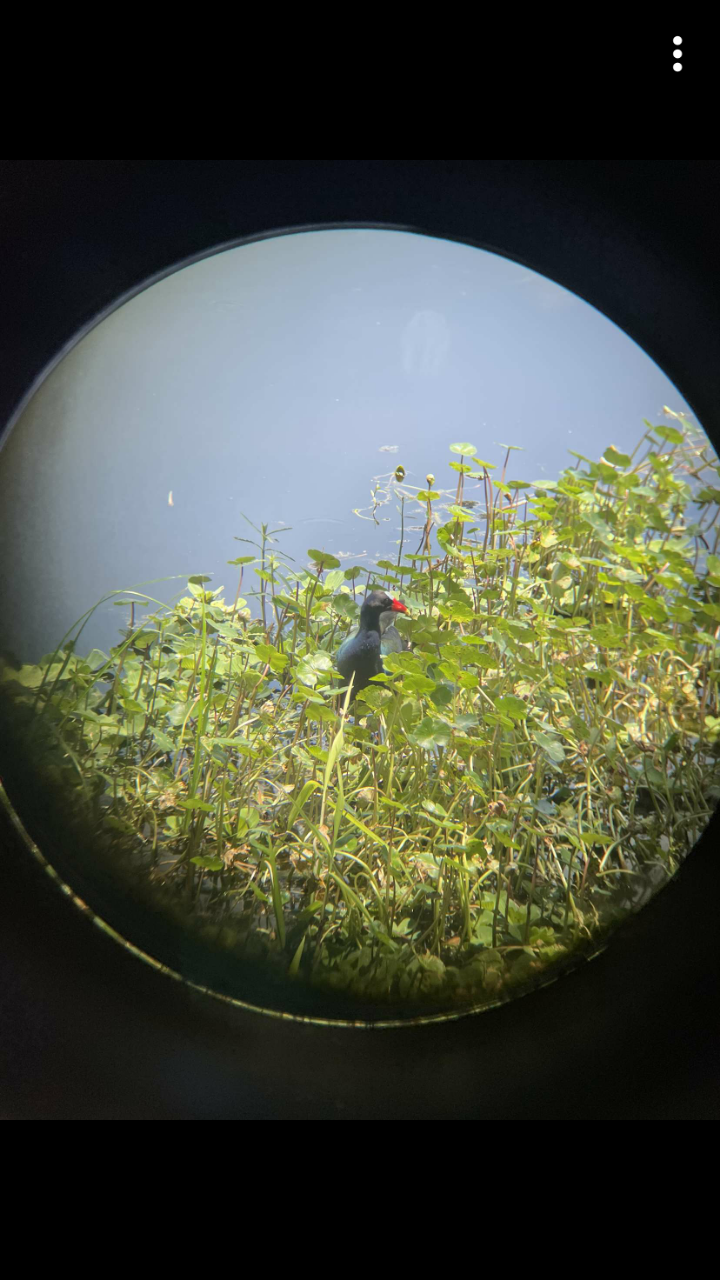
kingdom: Animalia
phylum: Chordata
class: Aves
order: Gruiformes
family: Rallidae
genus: Porphyrio
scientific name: Porphyrio martinica
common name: Purple gallinule
